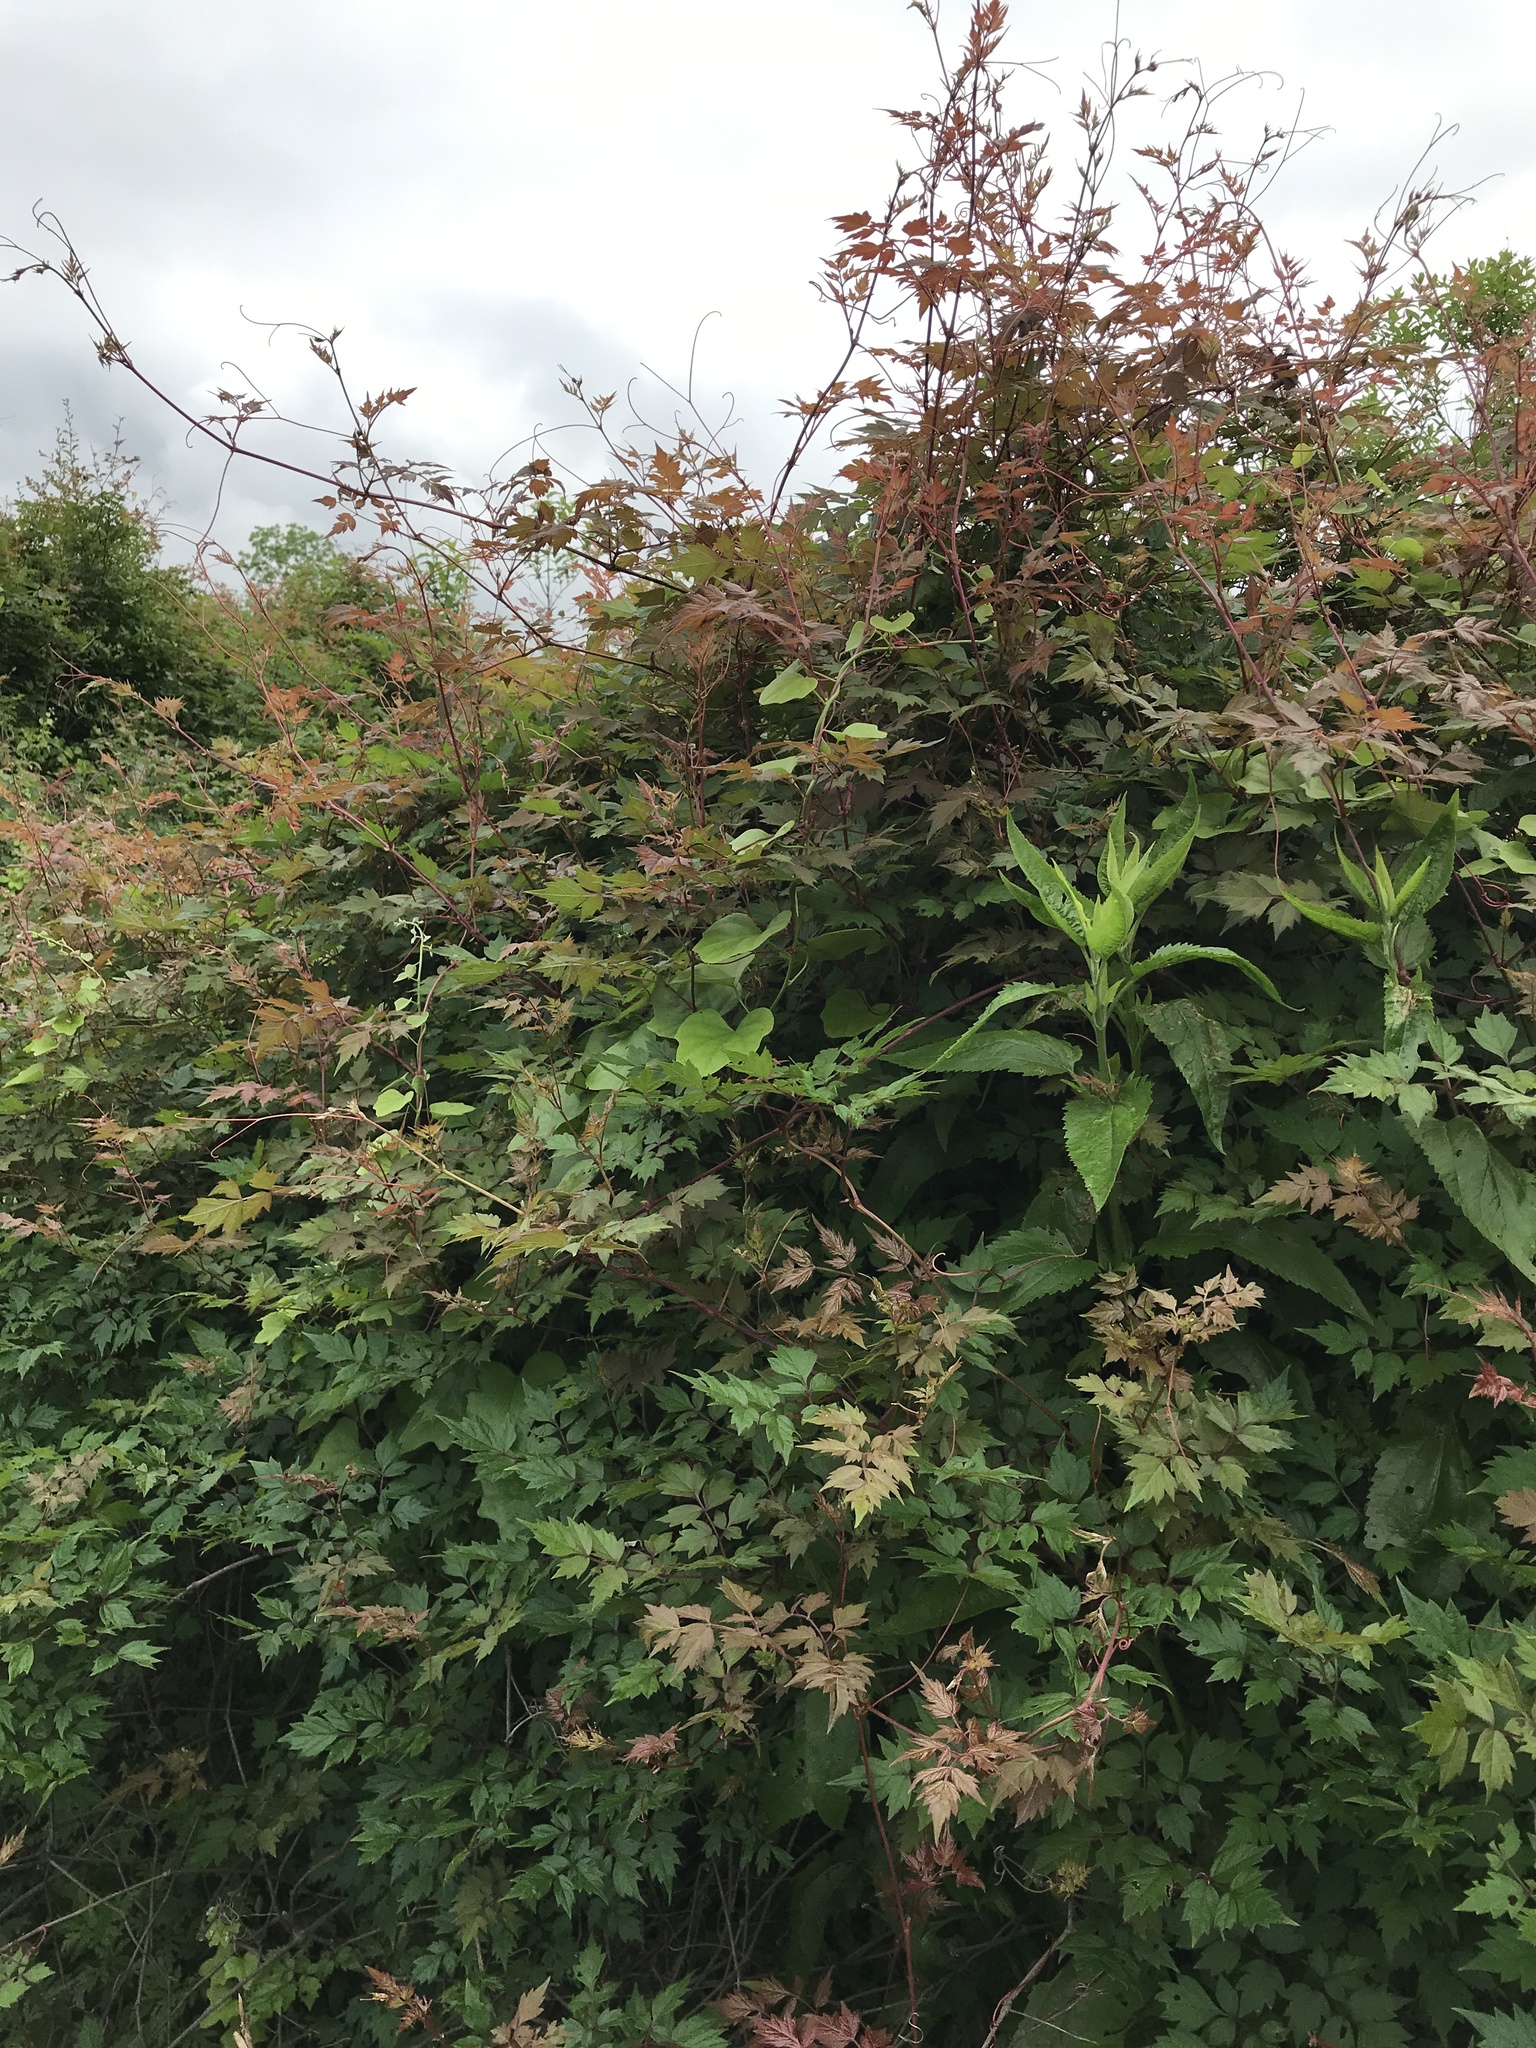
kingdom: Plantae
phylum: Tracheophyta
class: Magnoliopsida
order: Vitales
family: Vitaceae
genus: Nekemias
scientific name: Nekemias arborea
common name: Peppervine
